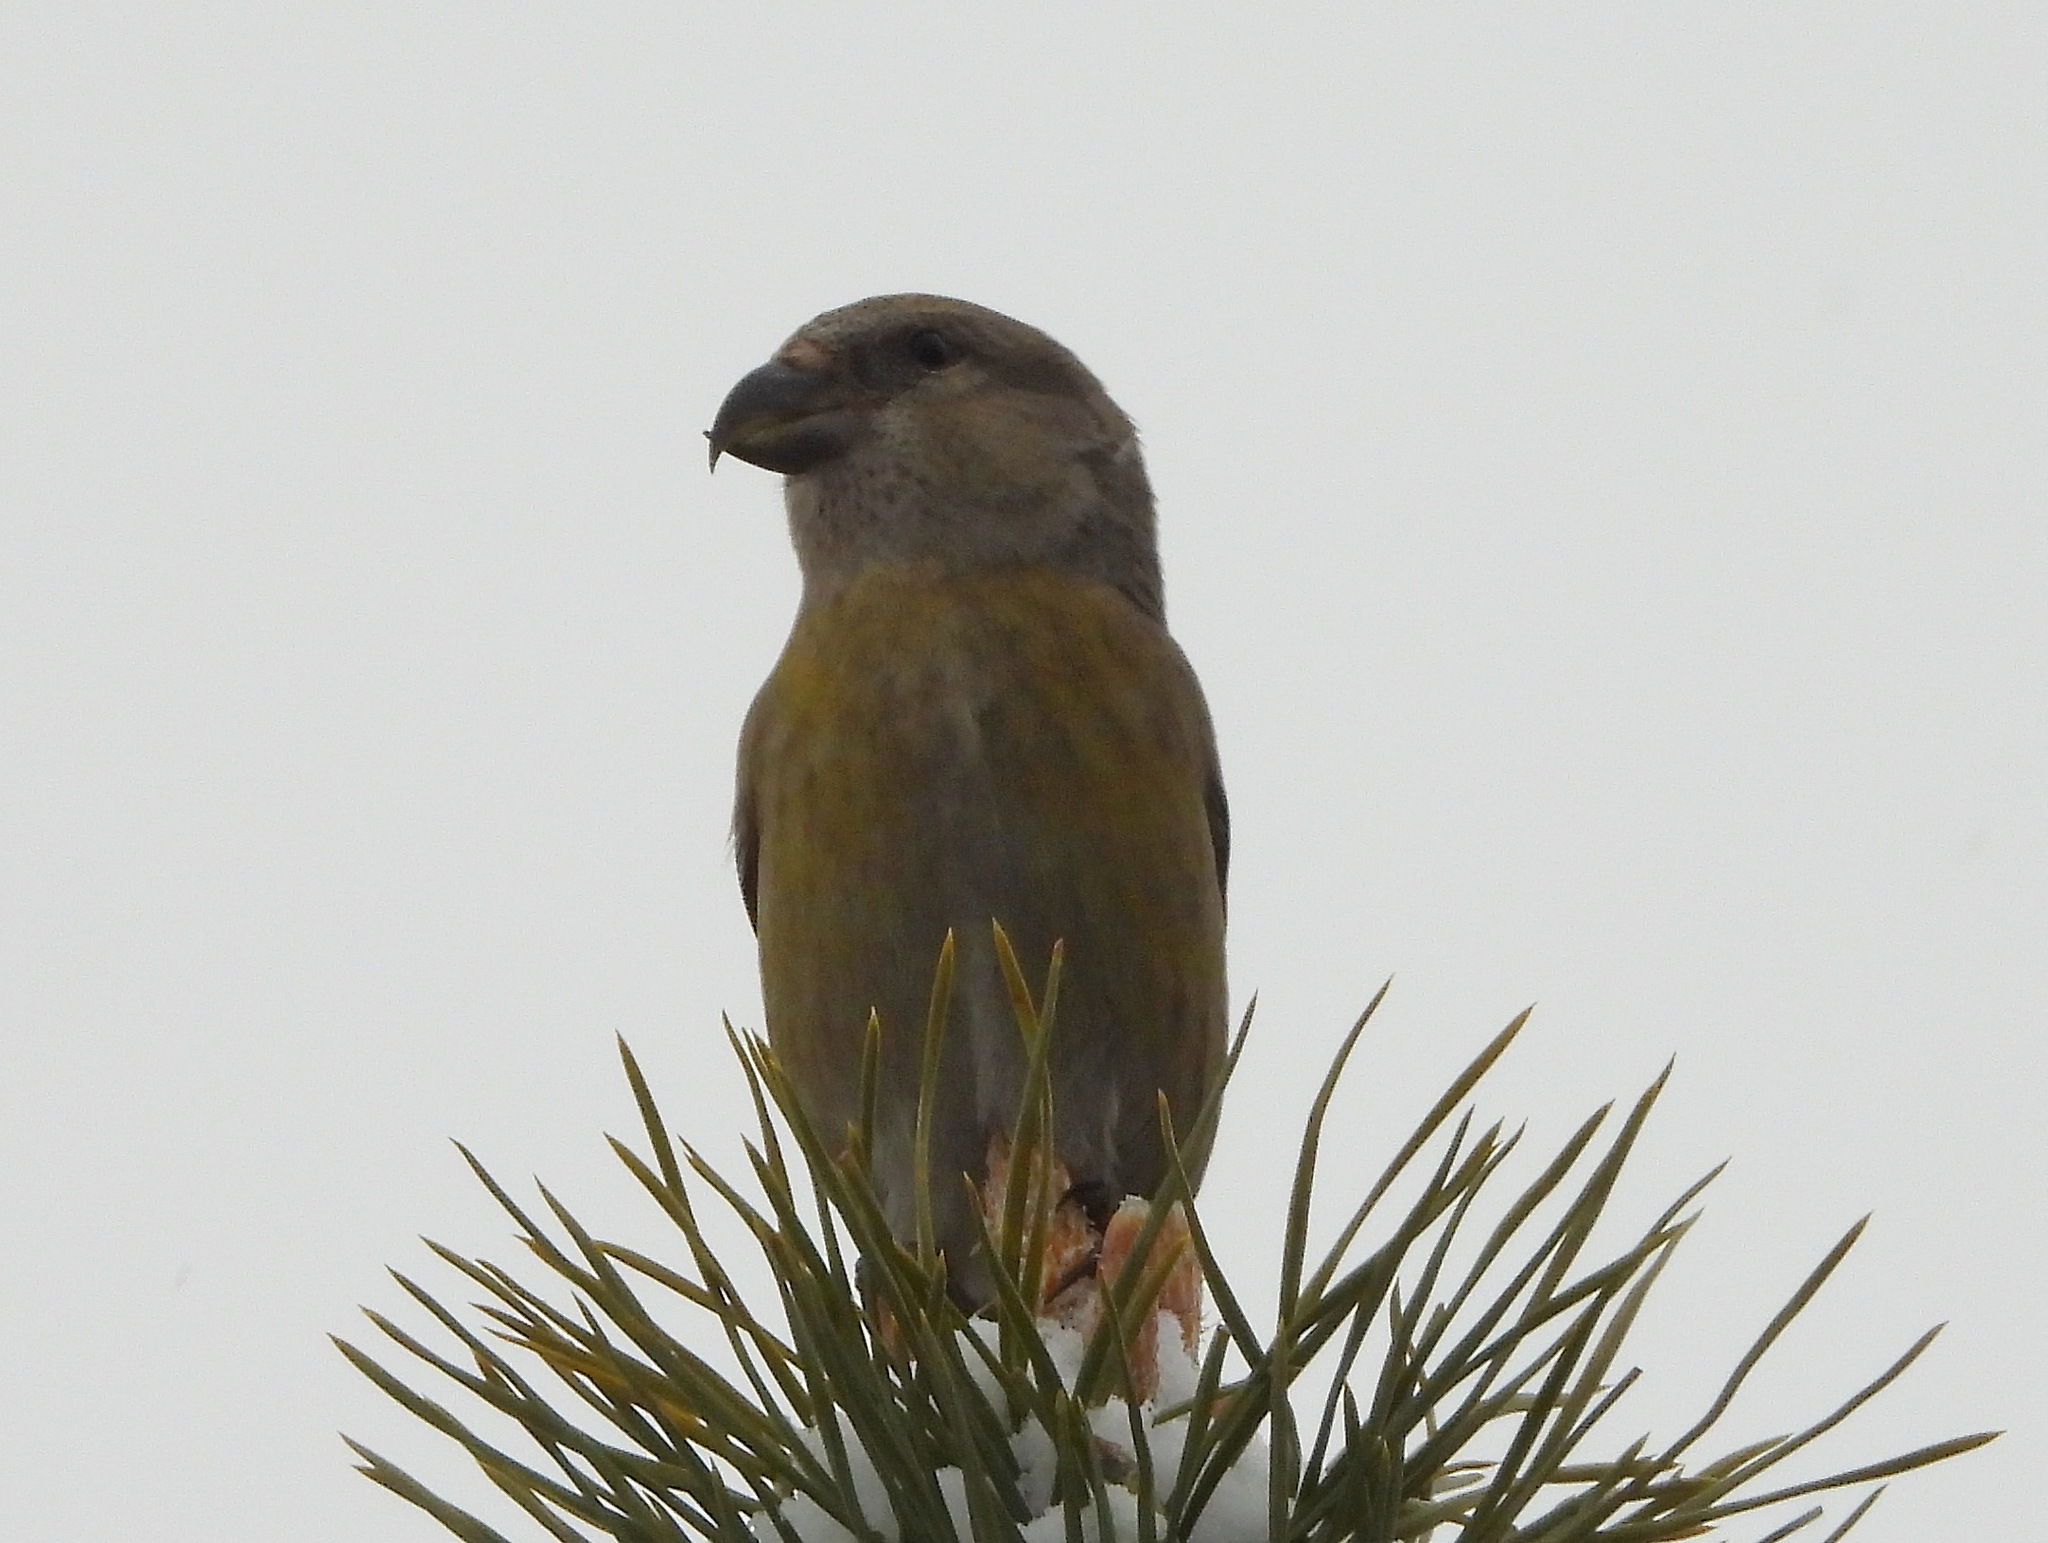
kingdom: Animalia
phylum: Chordata
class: Aves
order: Passeriformes
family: Fringillidae
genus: Loxia
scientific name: Loxia curvirostra
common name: Red crossbill
